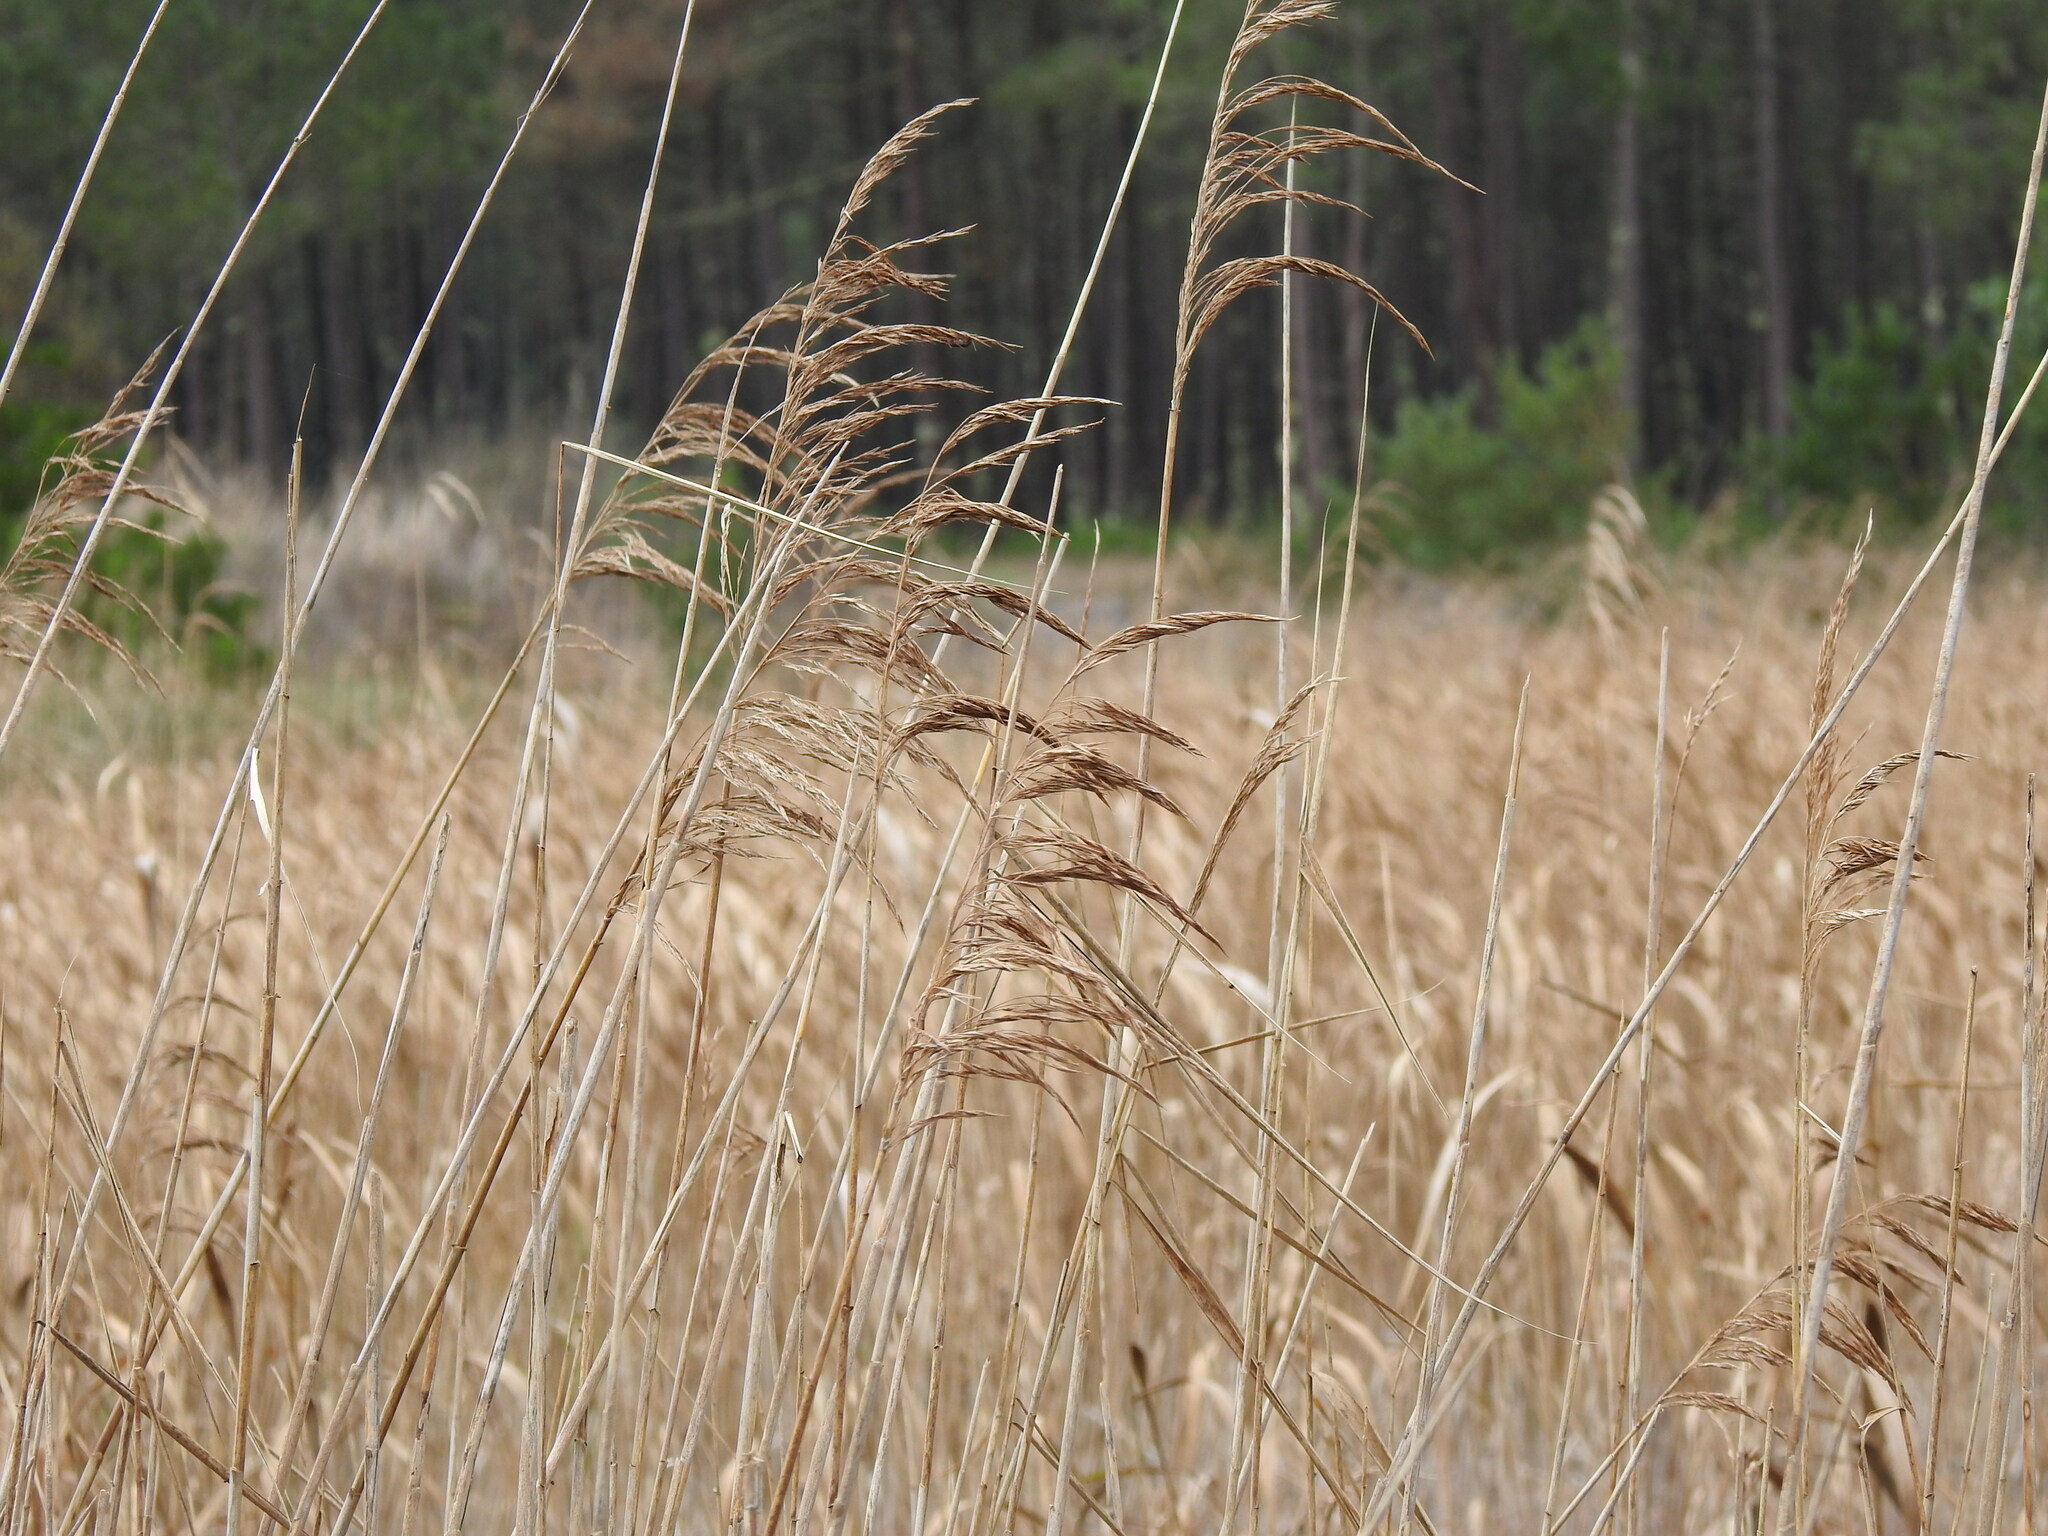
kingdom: Plantae
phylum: Tracheophyta
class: Liliopsida
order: Poales
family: Poaceae
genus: Phragmites
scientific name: Phragmites australis
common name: Common reed
